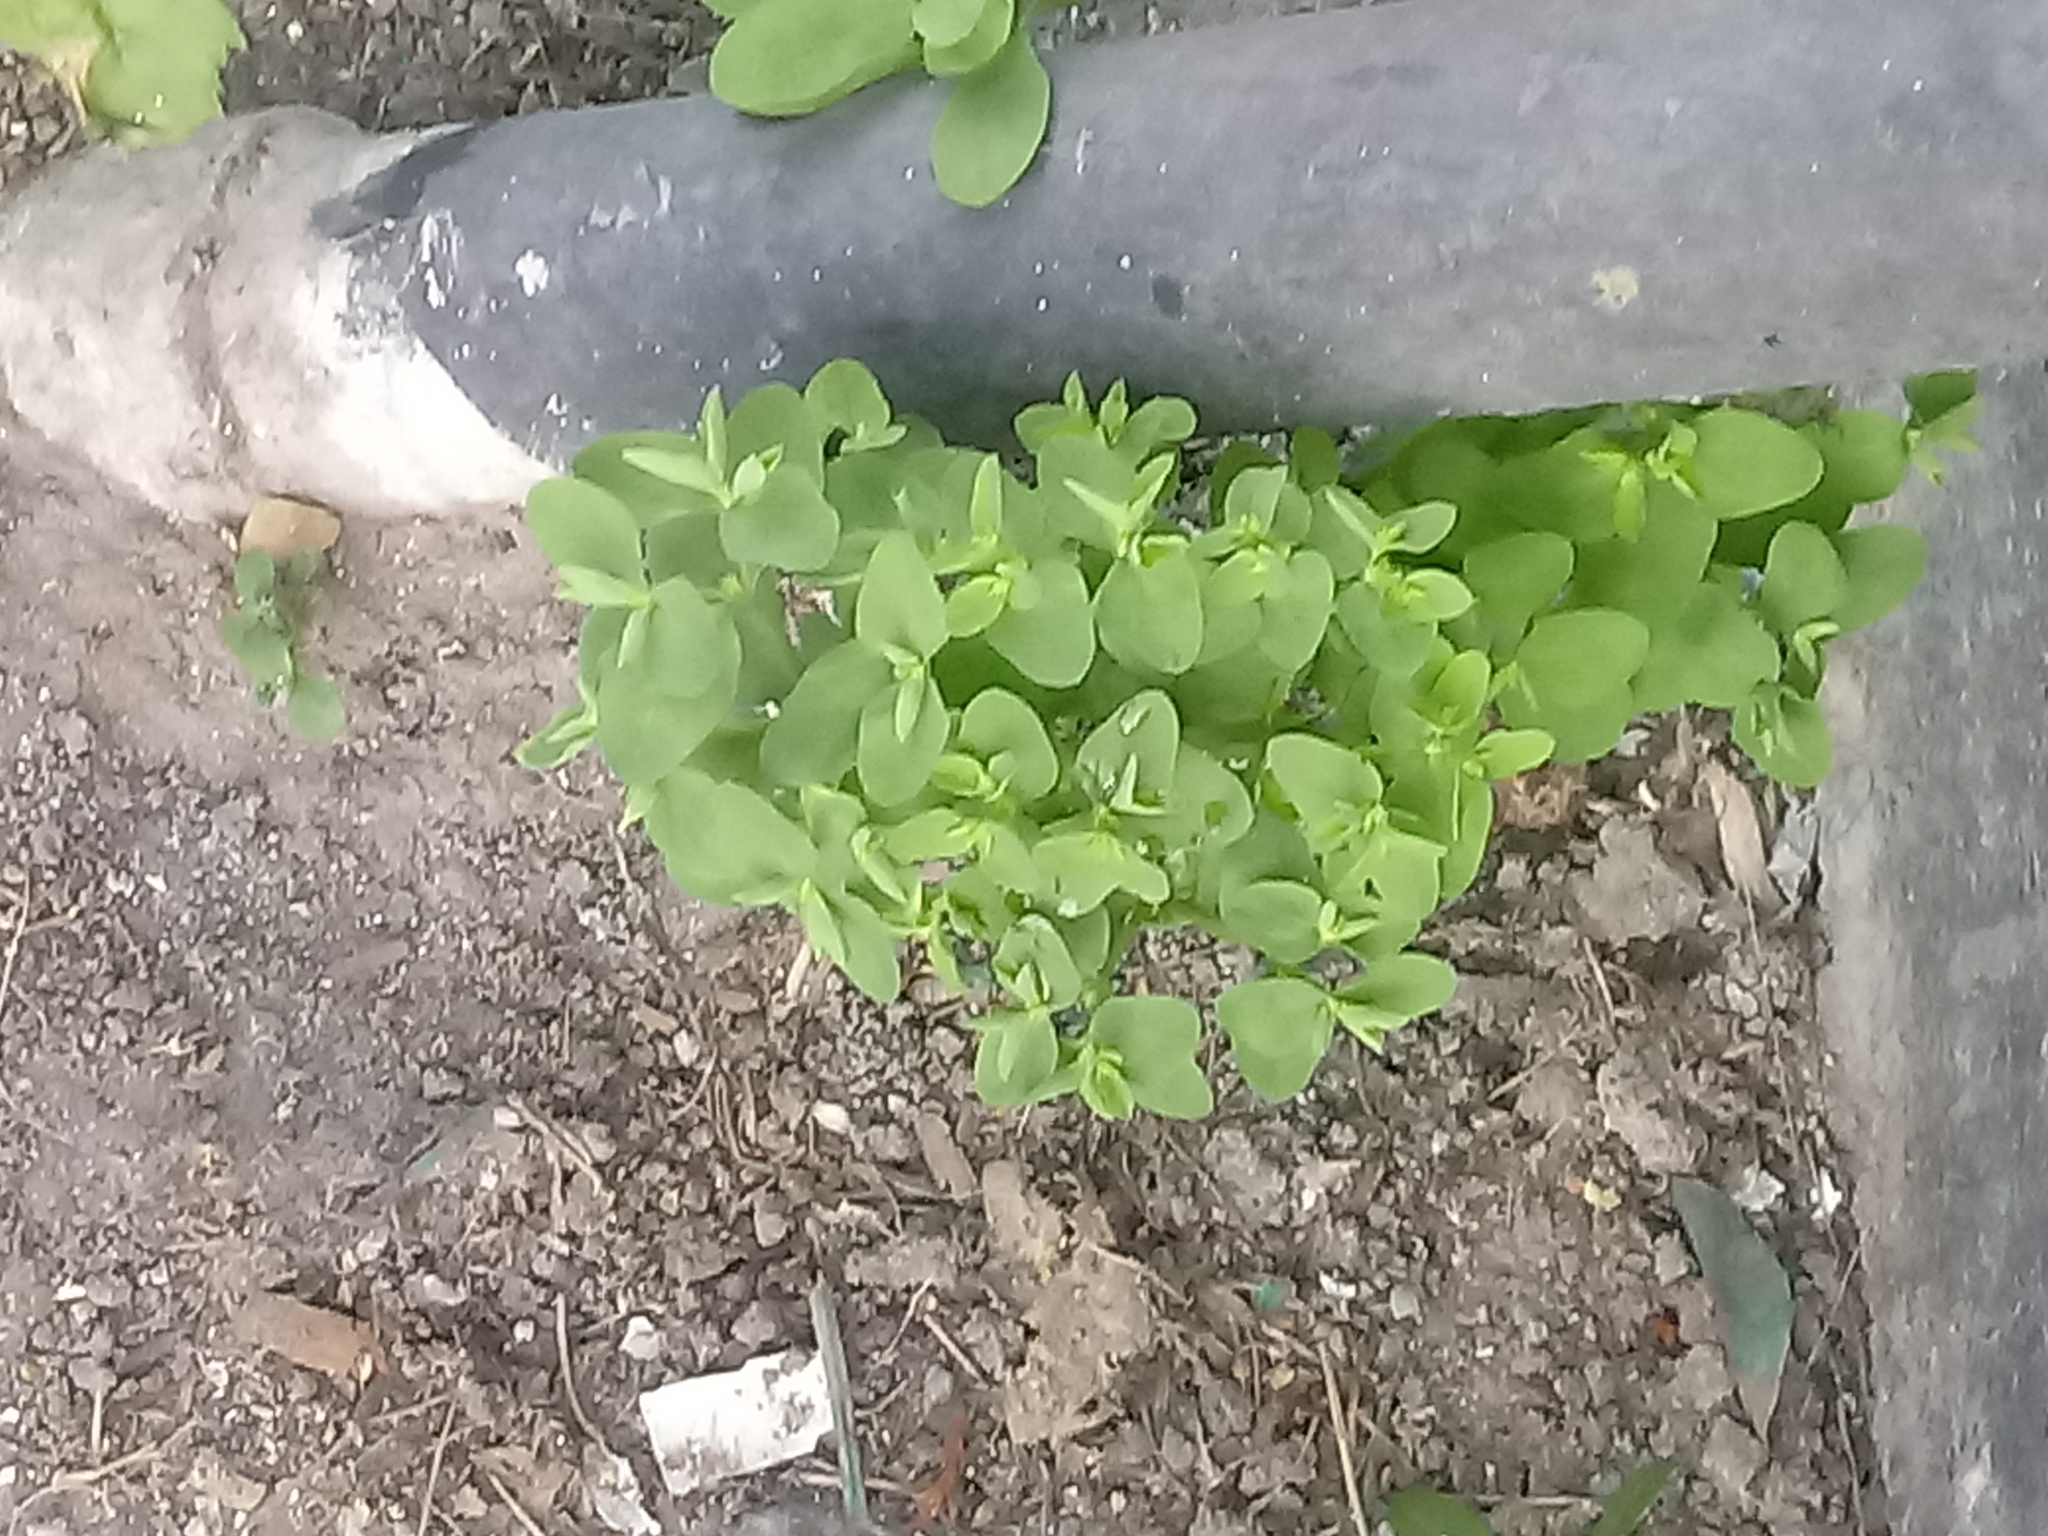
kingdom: Plantae
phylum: Tracheophyta
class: Magnoliopsida
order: Malpighiales
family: Euphorbiaceae
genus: Euphorbia
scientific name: Euphorbia peplus
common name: Petty spurge
